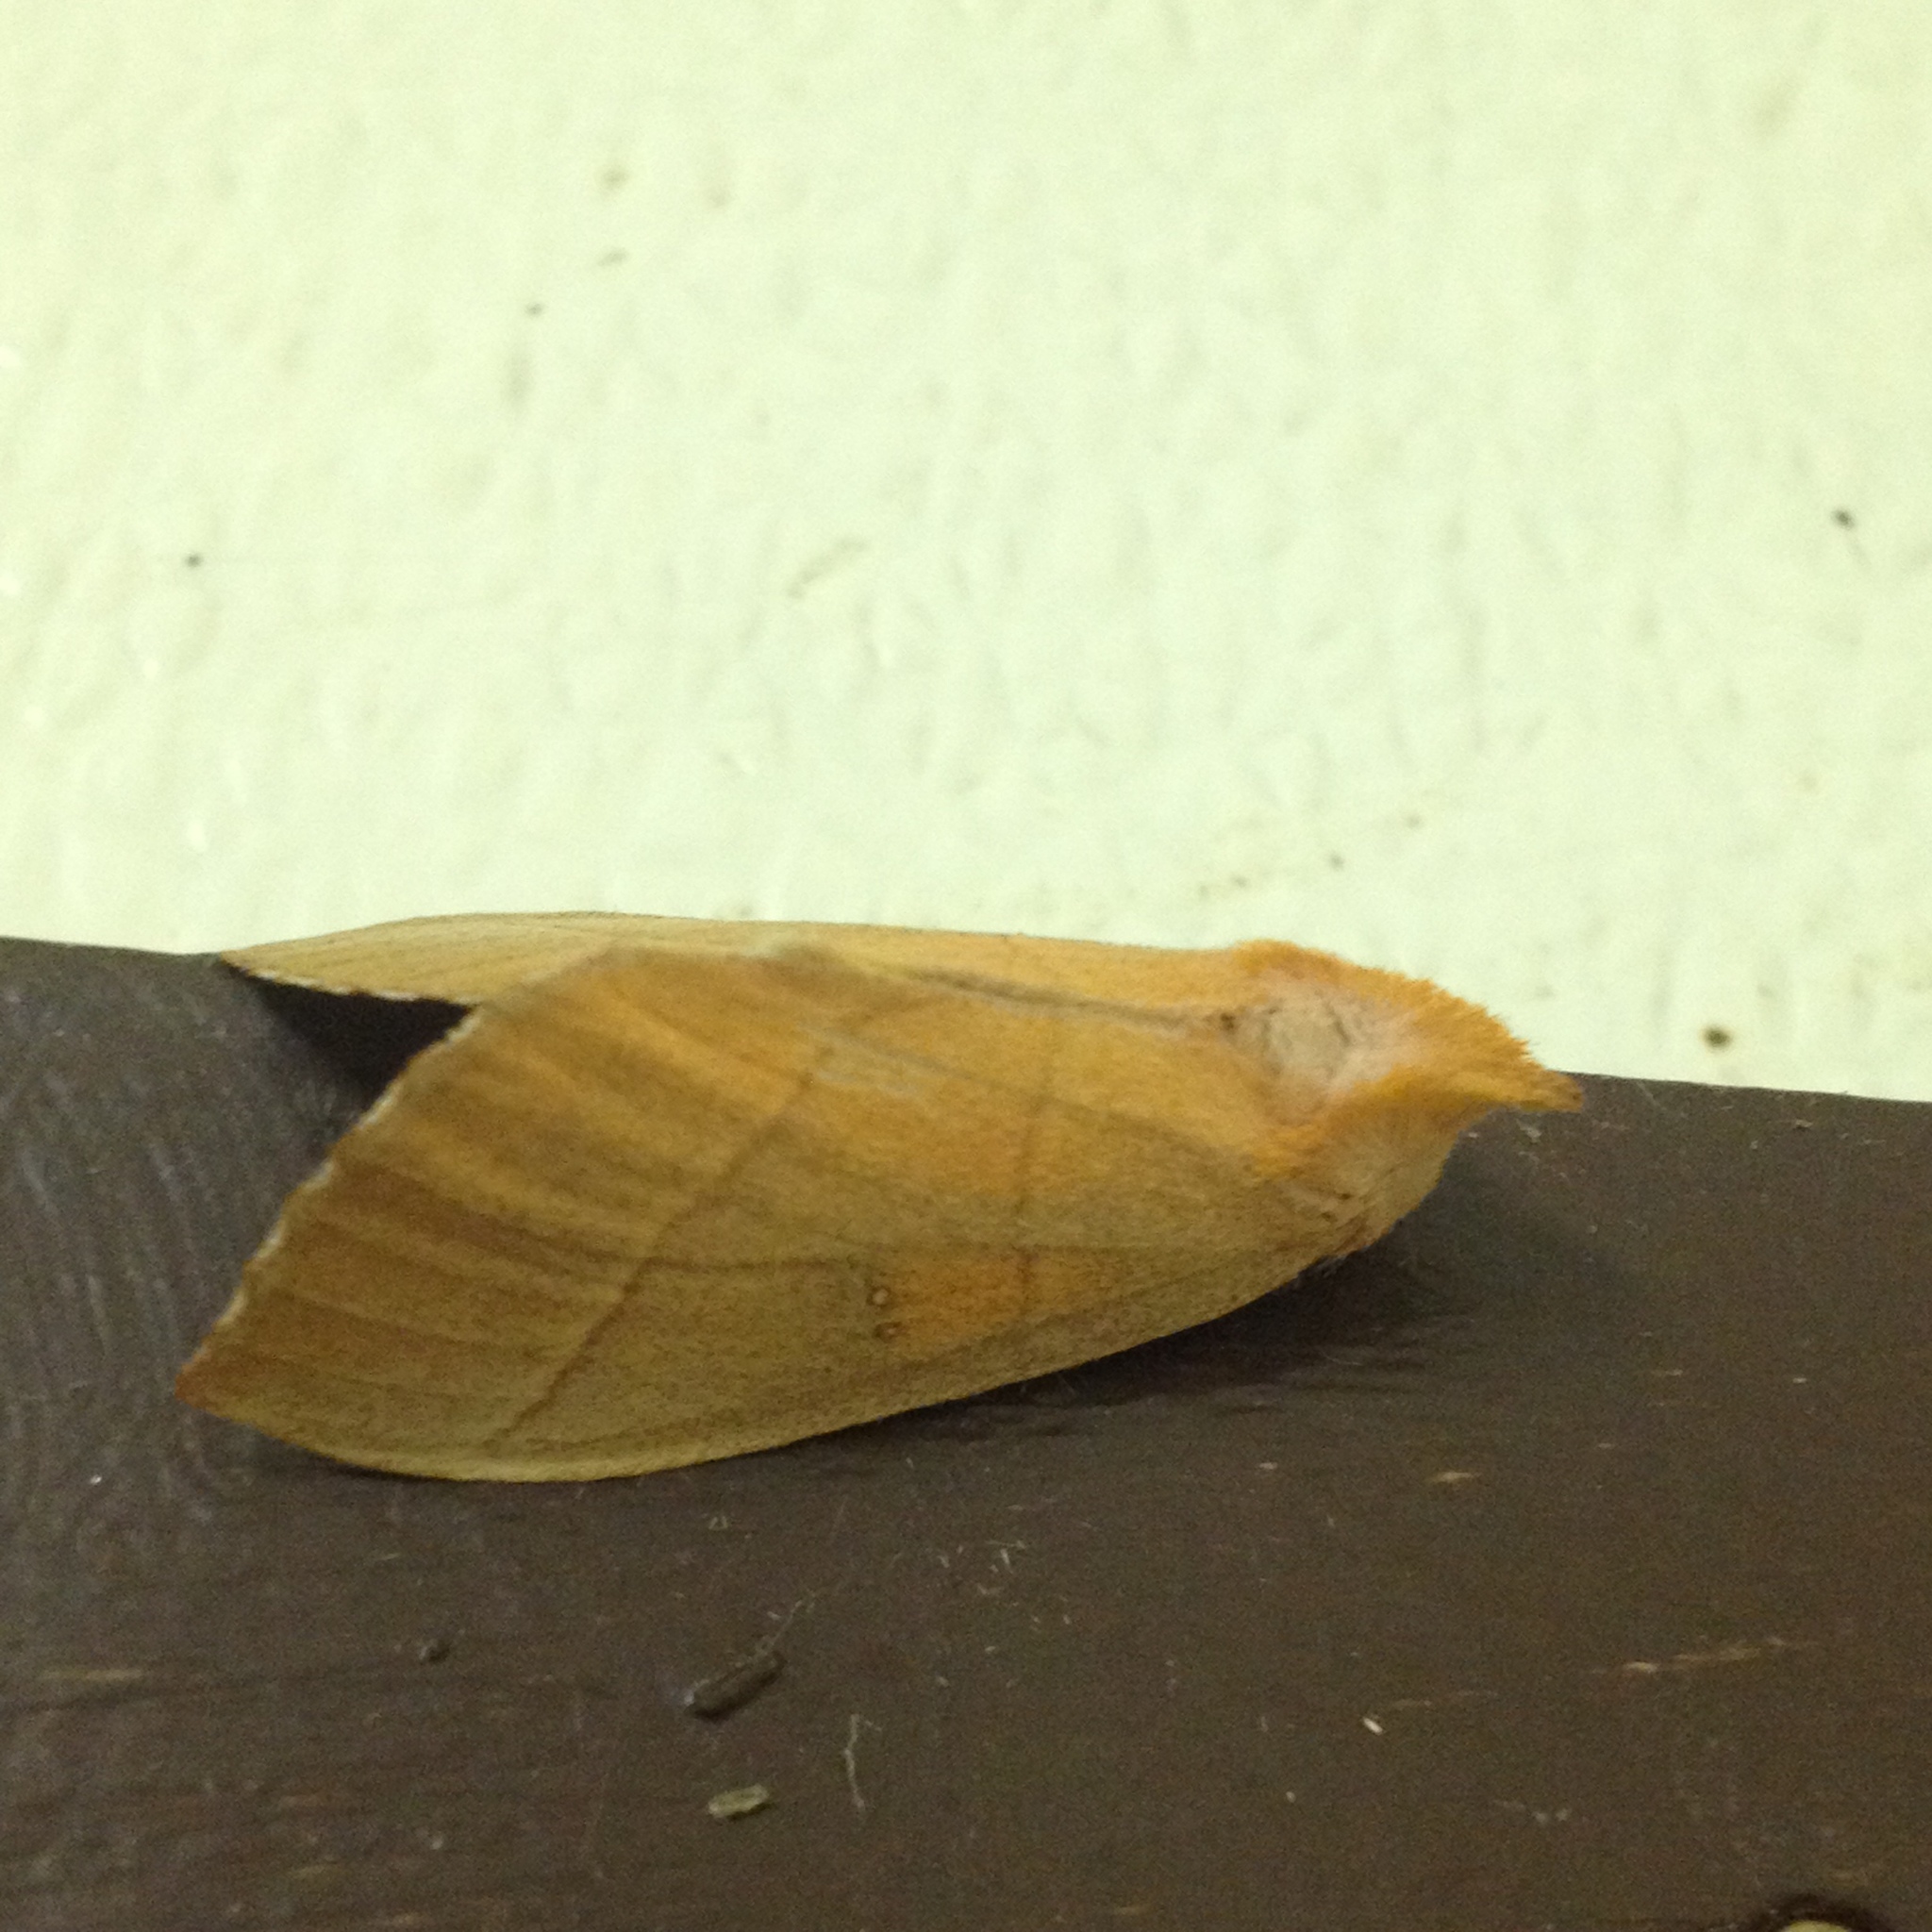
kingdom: Animalia
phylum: Arthropoda
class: Insecta
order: Lepidoptera
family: Notodontidae
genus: Nadata
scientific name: Nadata gibbosa
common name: White-dotted prominent
